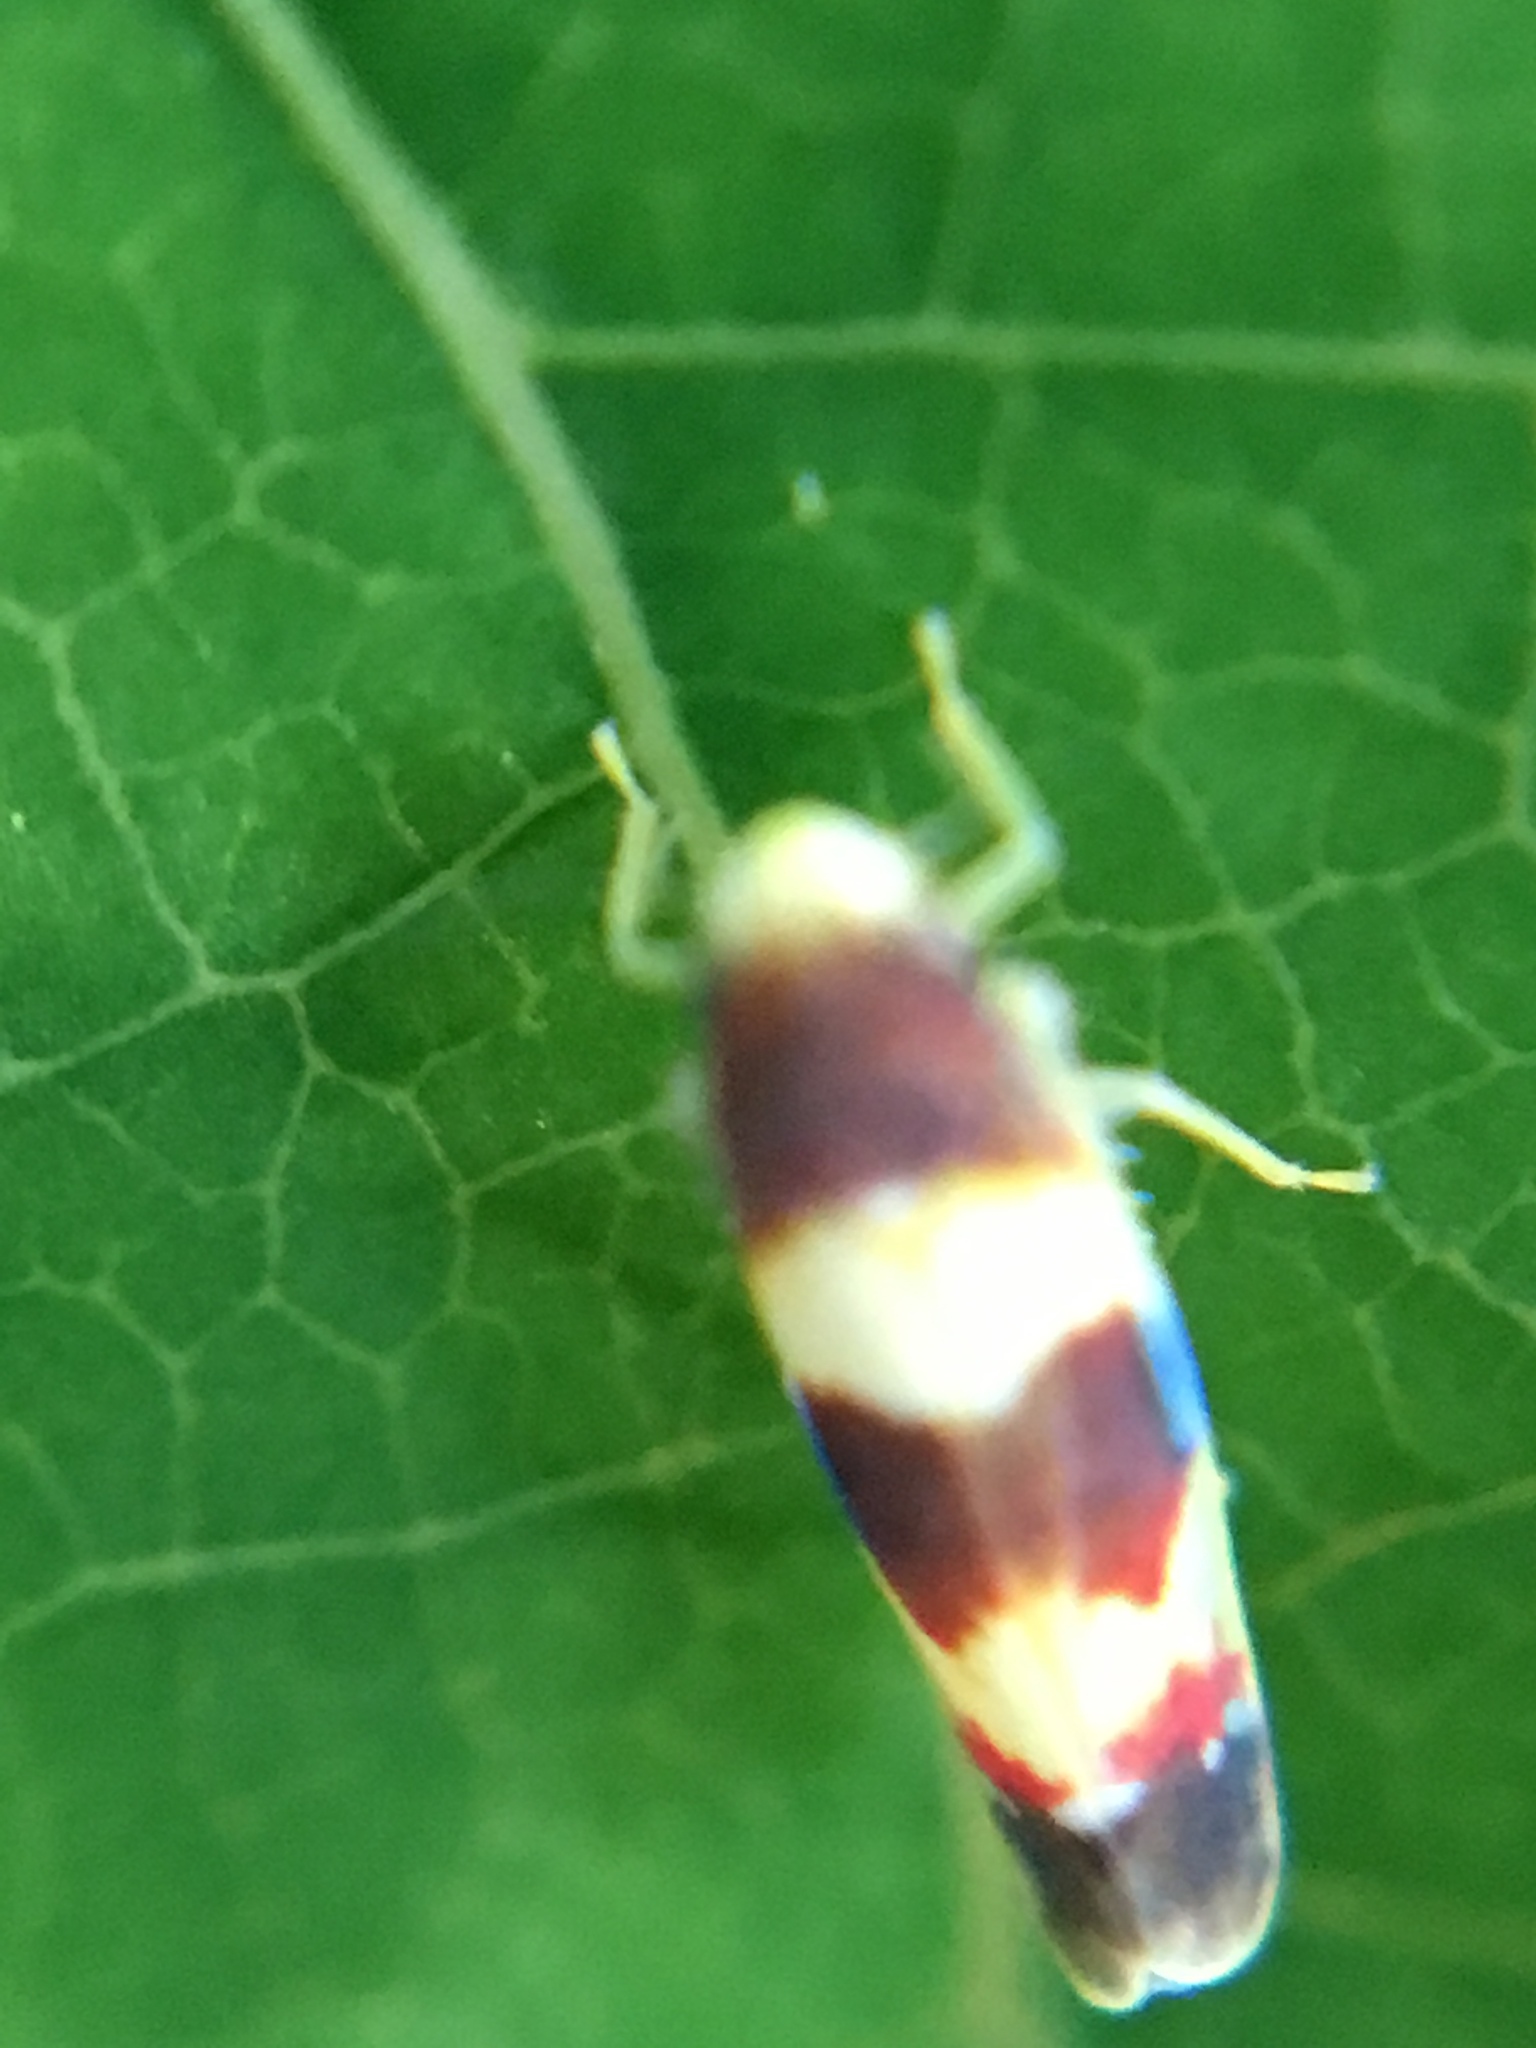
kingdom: Animalia
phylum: Arthropoda
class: Insecta
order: Hemiptera
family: Cicadellidae
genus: Erythroneura
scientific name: Erythroneura bistrata
